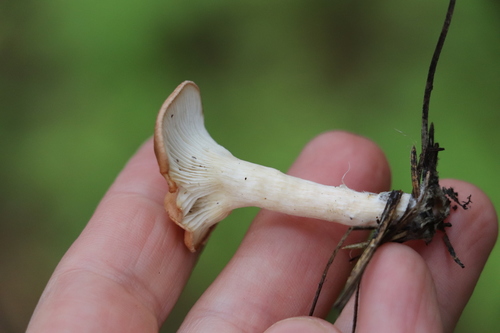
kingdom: Fungi
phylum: Basidiomycota
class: Agaricomycetes
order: Agaricales
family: Tricholomataceae
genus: Infundibulicybe
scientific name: Infundibulicybe gibba
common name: Common funnel
